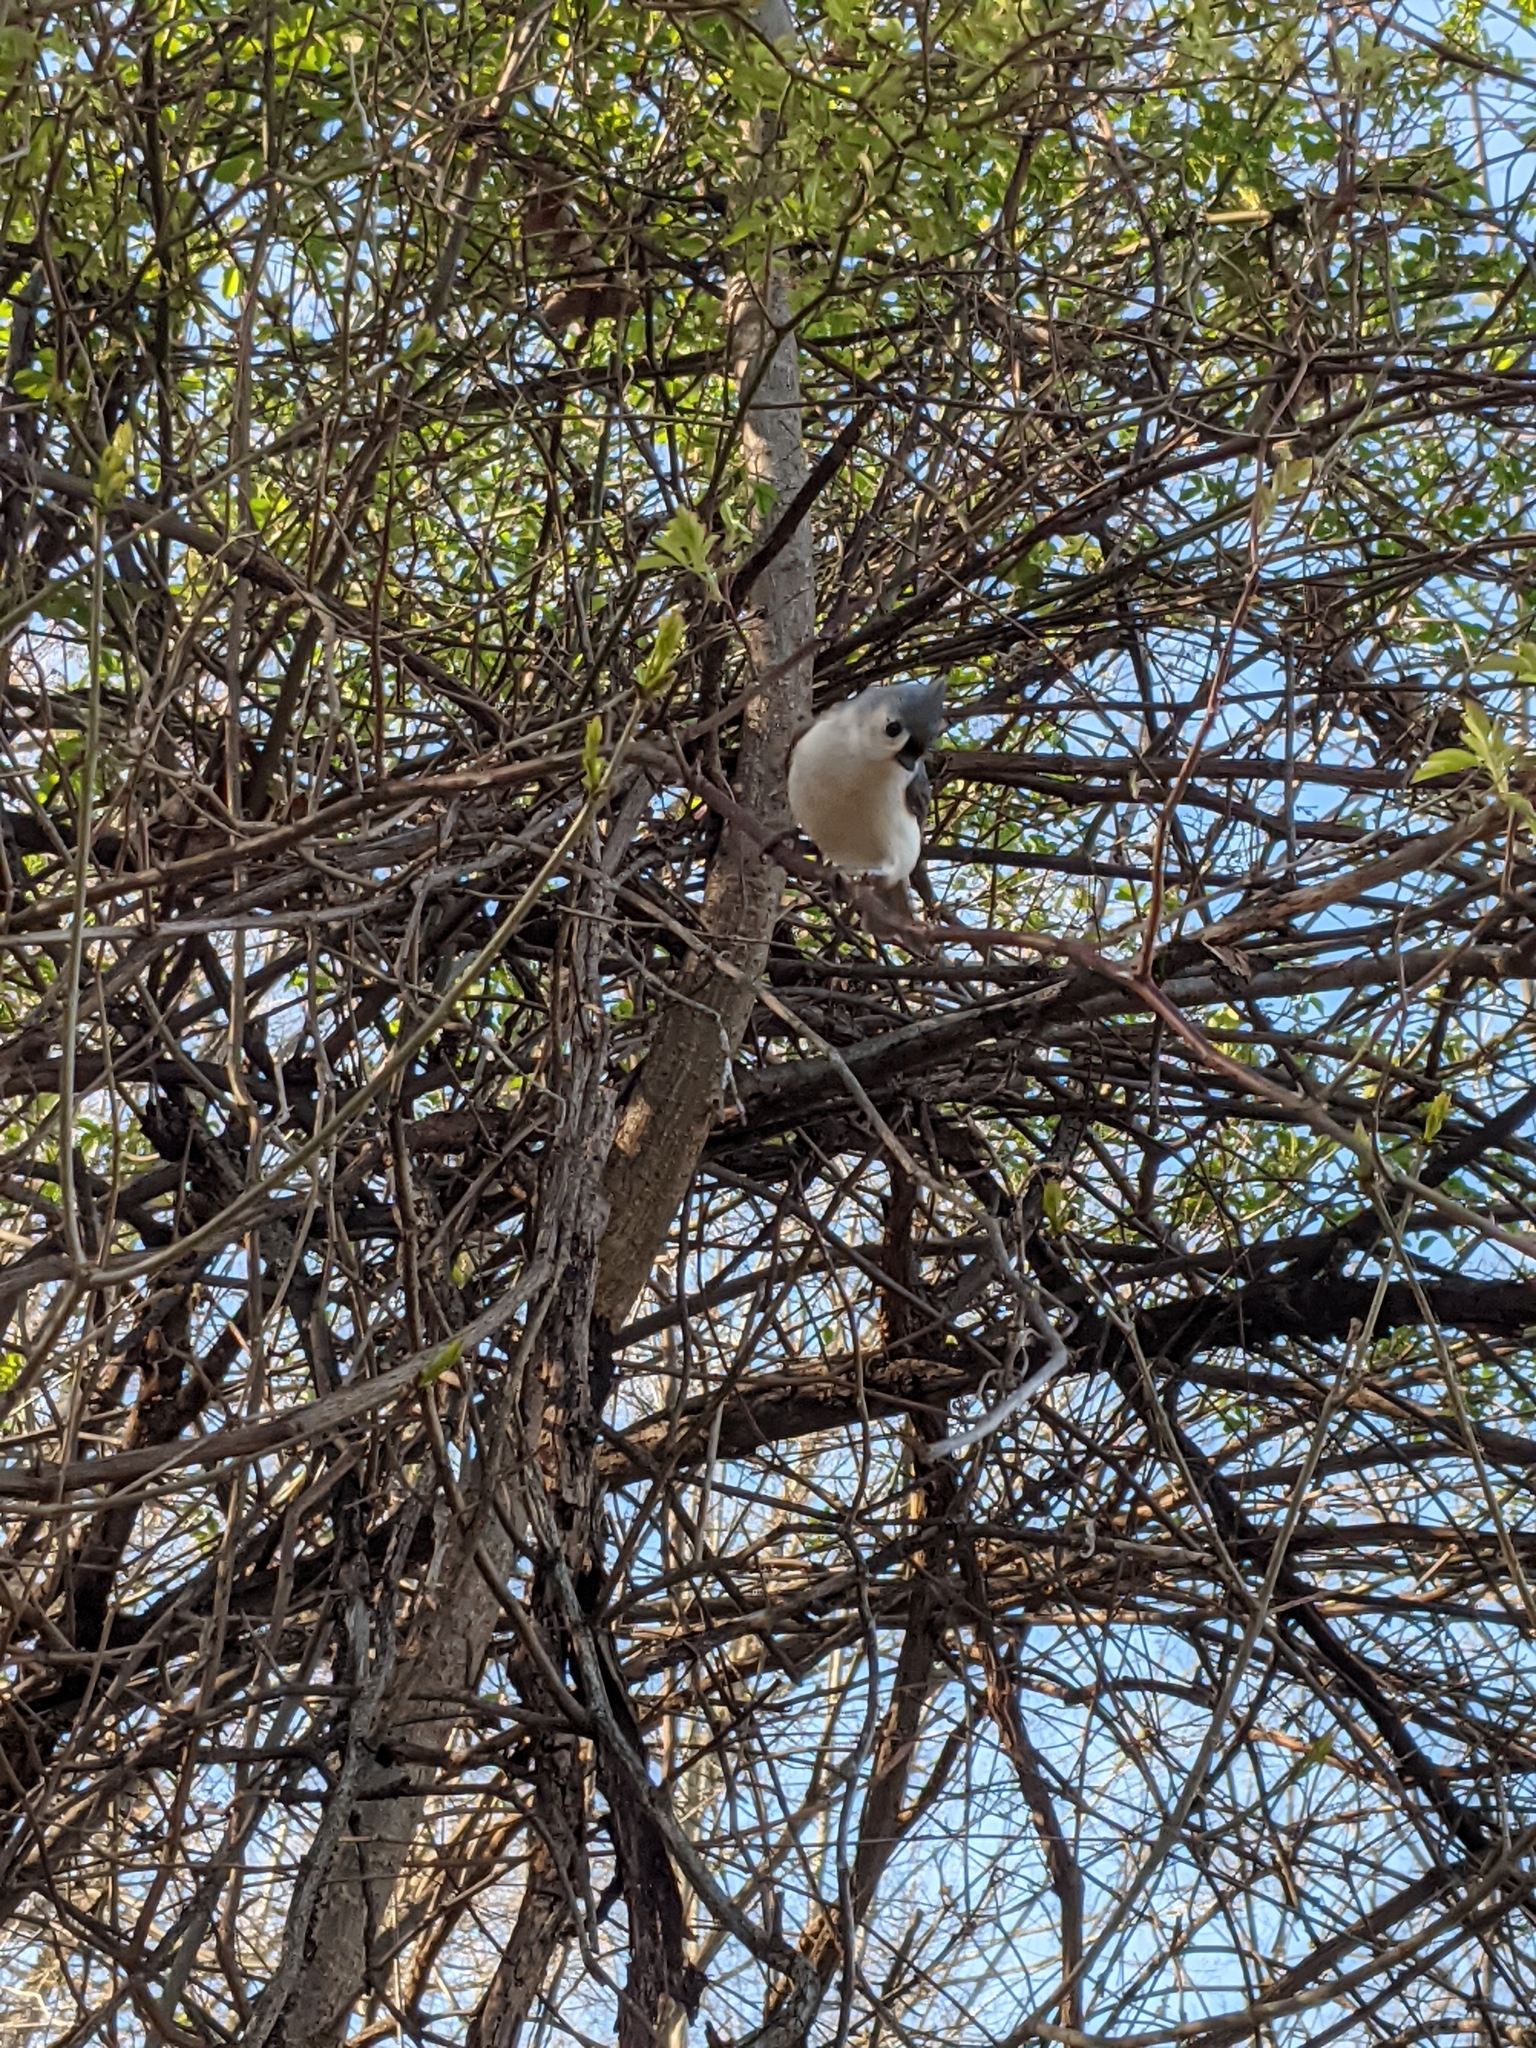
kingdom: Animalia
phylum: Chordata
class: Aves
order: Passeriformes
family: Paridae
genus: Baeolophus
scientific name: Baeolophus bicolor
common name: Tufted titmouse
